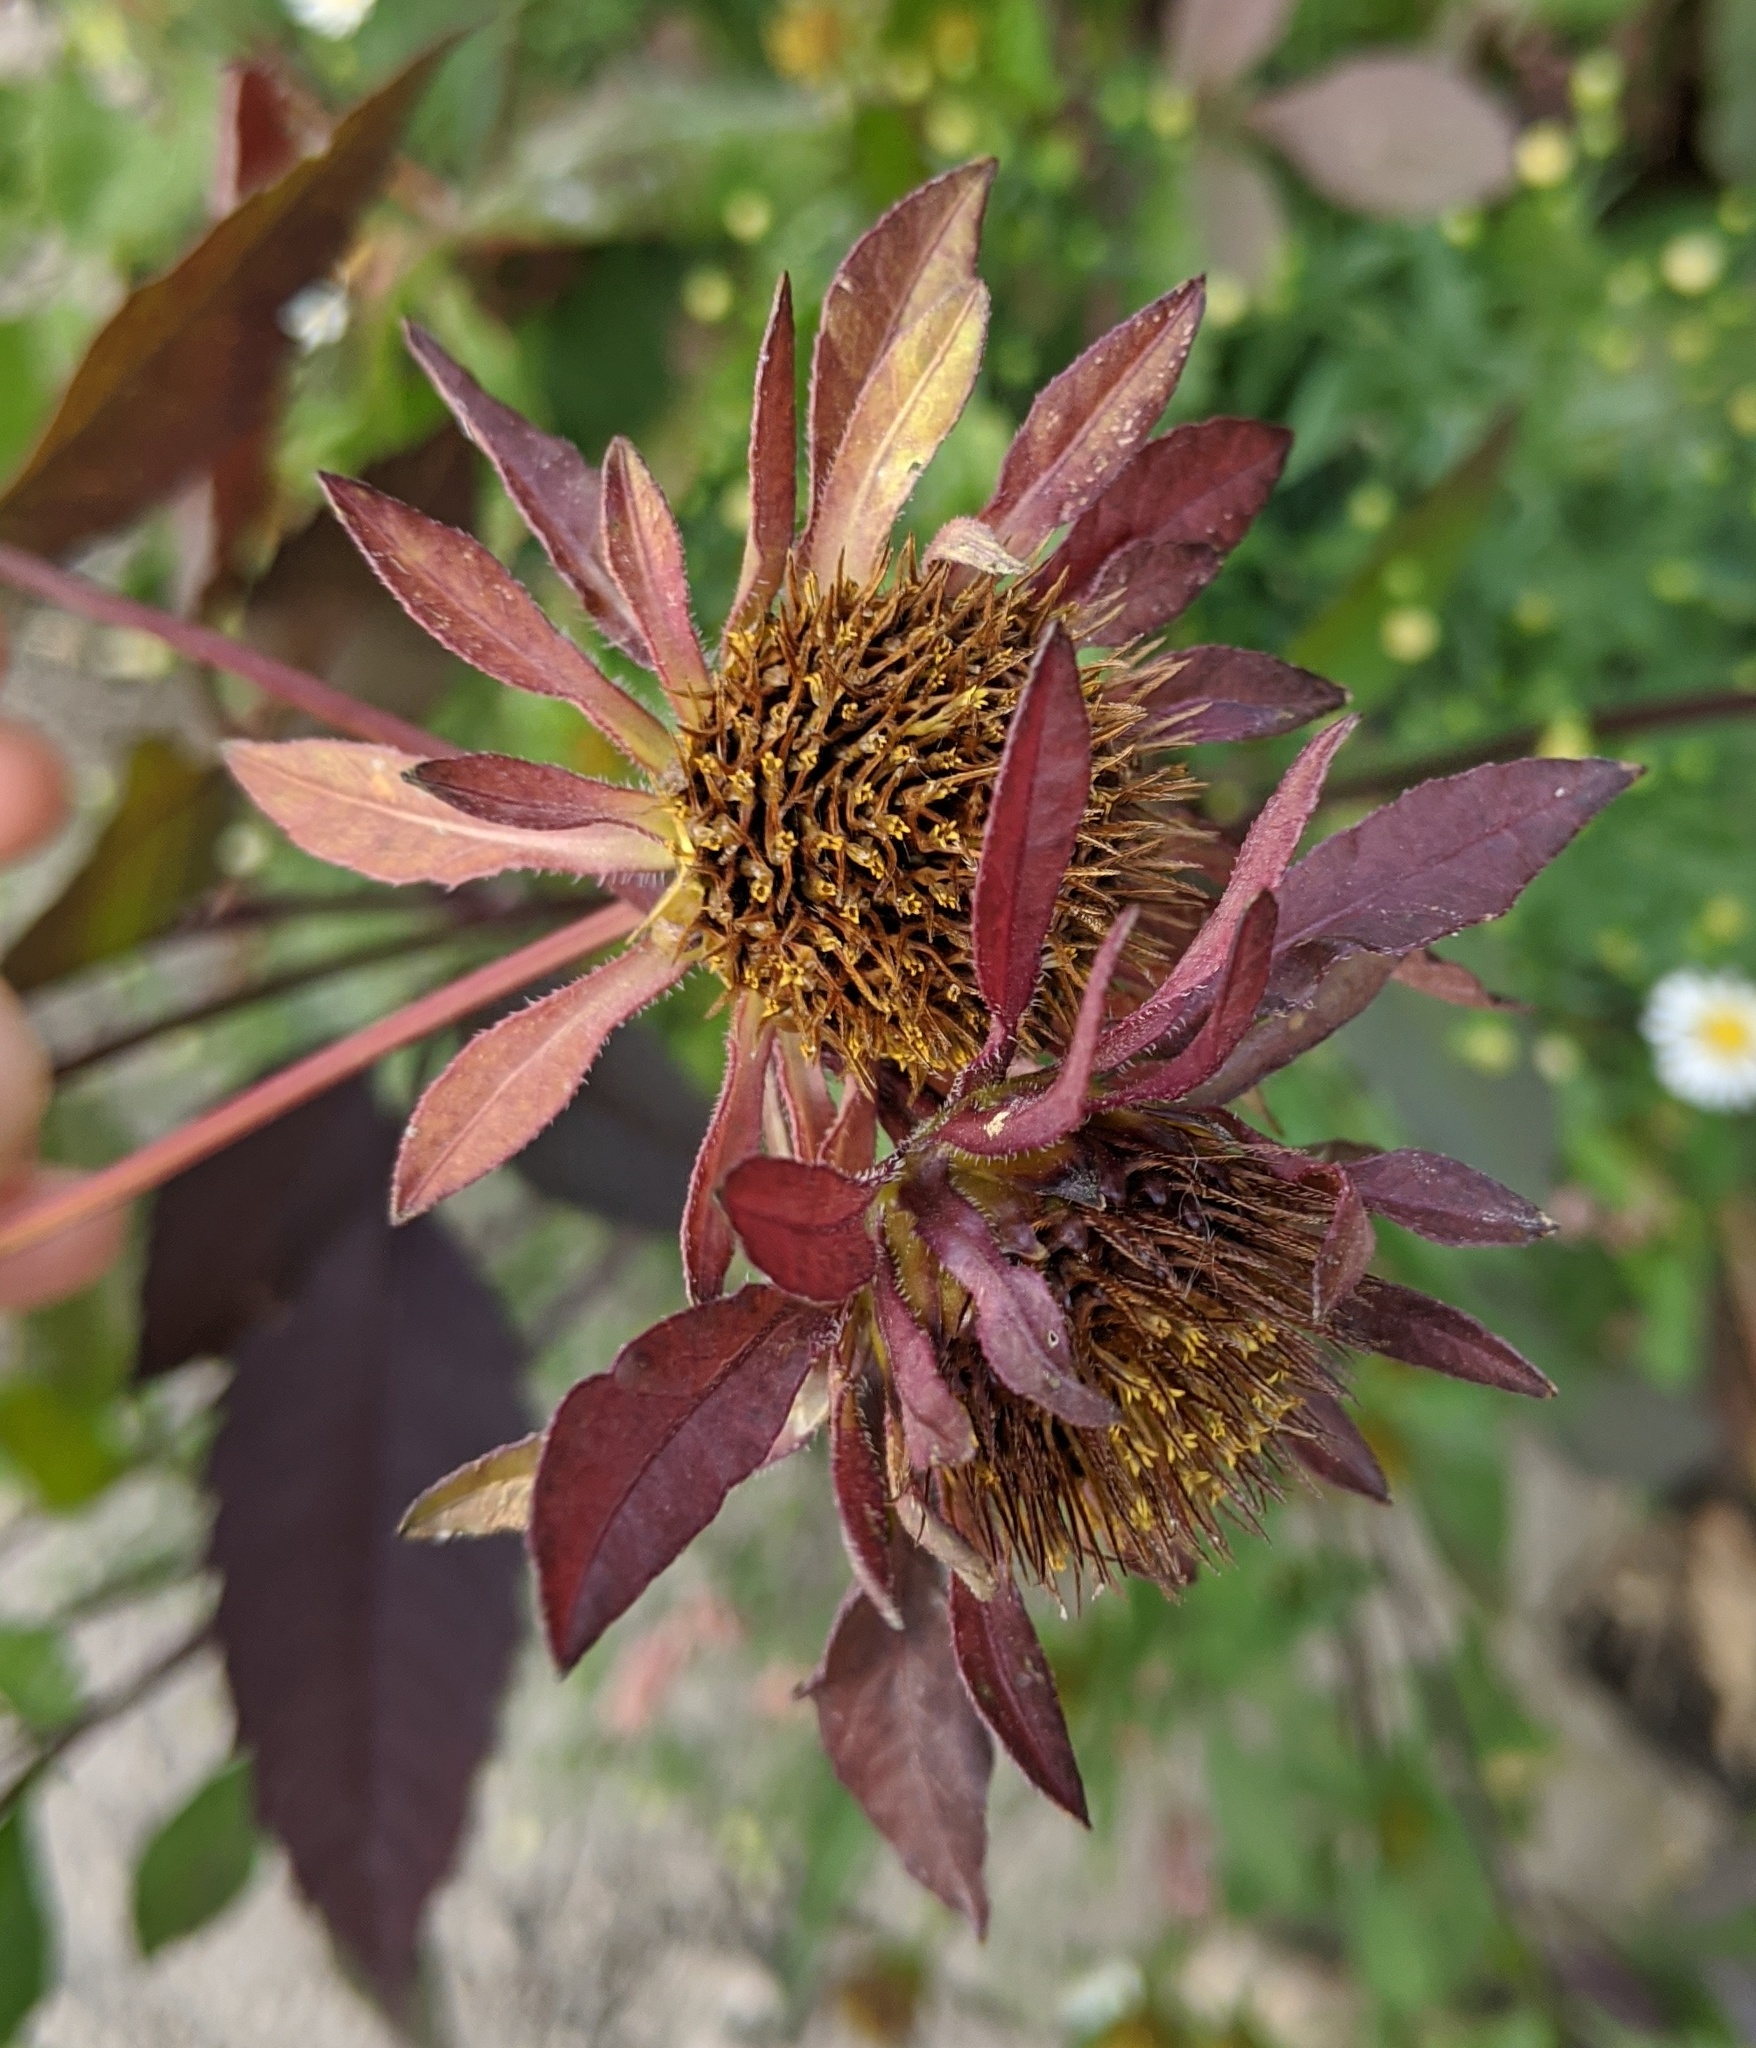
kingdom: Plantae
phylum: Tracheophyta
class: Magnoliopsida
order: Asterales
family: Asteraceae
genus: Bidens
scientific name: Bidens vulgata
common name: Tall beggarticks
